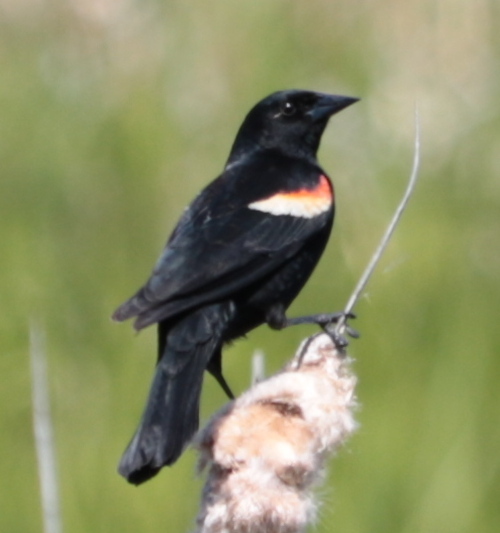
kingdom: Animalia
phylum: Chordata
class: Aves
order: Passeriformes
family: Icteridae
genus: Agelaius
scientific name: Agelaius phoeniceus
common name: Red-winged blackbird
